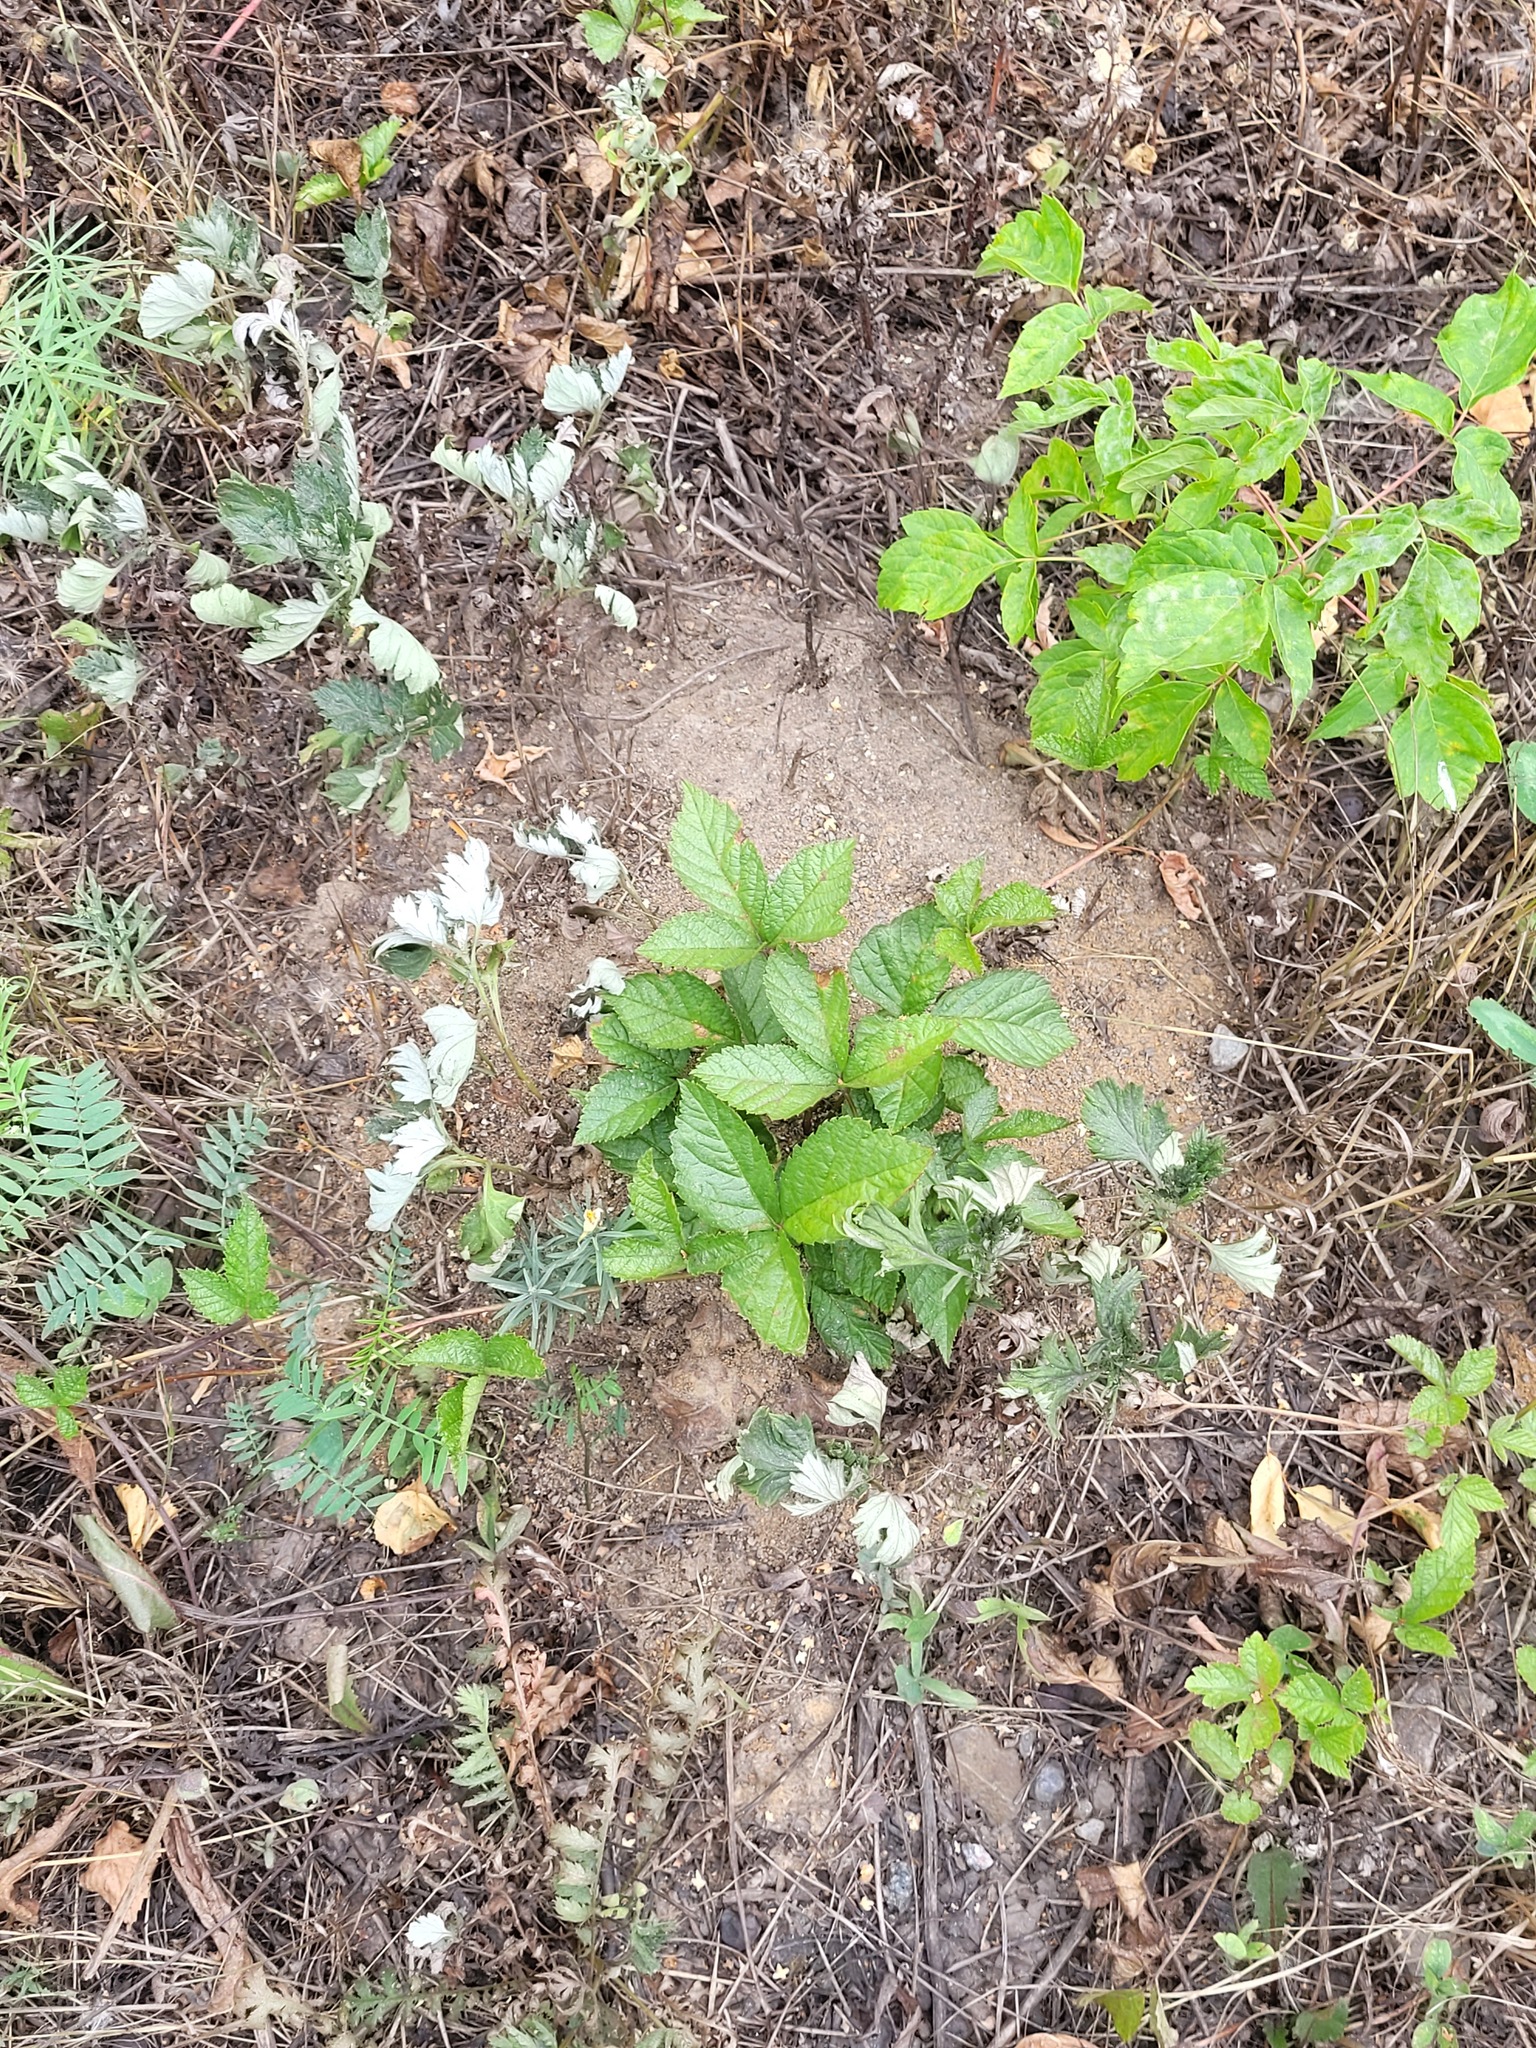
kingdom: Plantae
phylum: Tracheophyta
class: Magnoliopsida
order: Rosales
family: Rosaceae
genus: Rubus
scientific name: Rubus saxatilis
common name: Stone bramble
